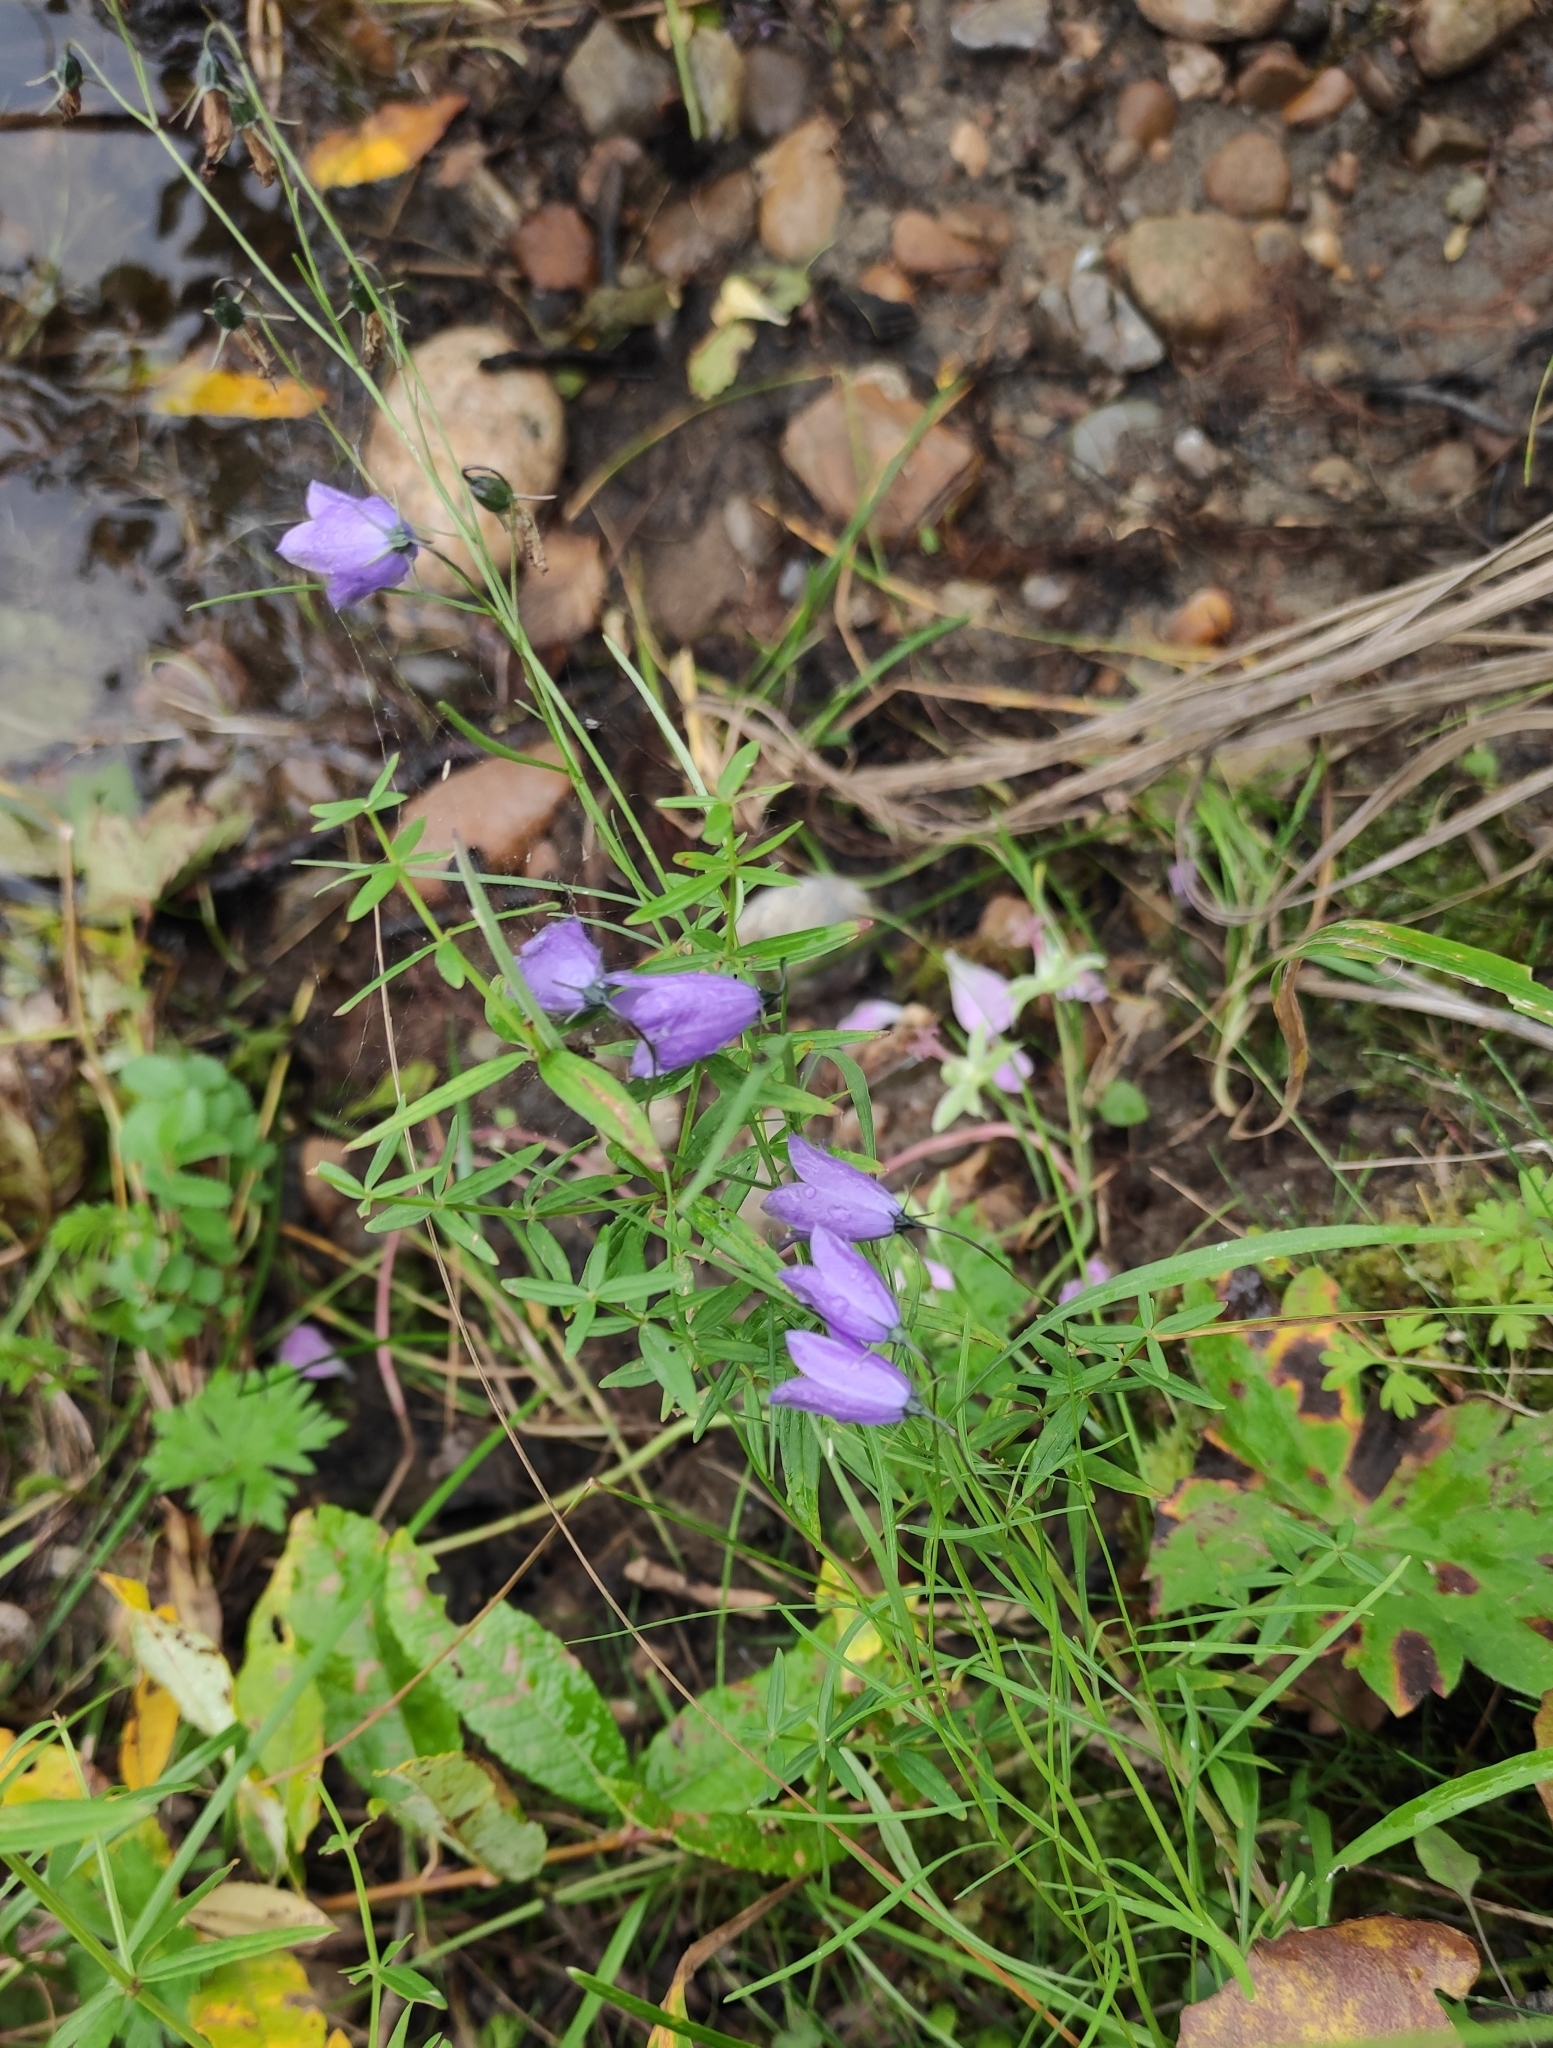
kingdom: Plantae
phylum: Tracheophyta
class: Magnoliopsida
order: Asterales
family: Campanulaceae
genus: Campanula
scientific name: Campanula rotundifolia
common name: Harebell
